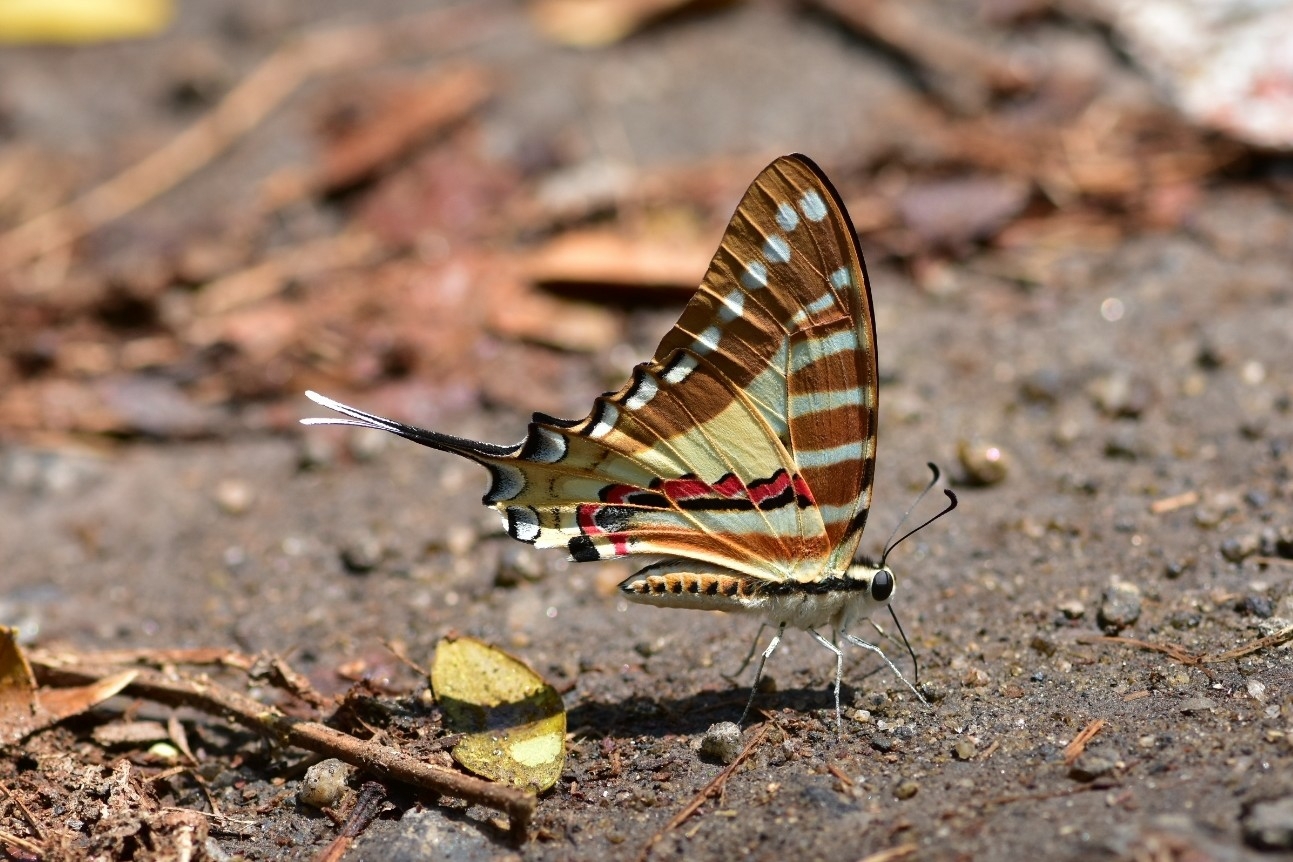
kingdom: Animalia
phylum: Arthropoda
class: Insecta
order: Lepidoptera
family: Papilionidae
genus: Graphium
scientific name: Graphium nomius
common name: Spot swordtail
